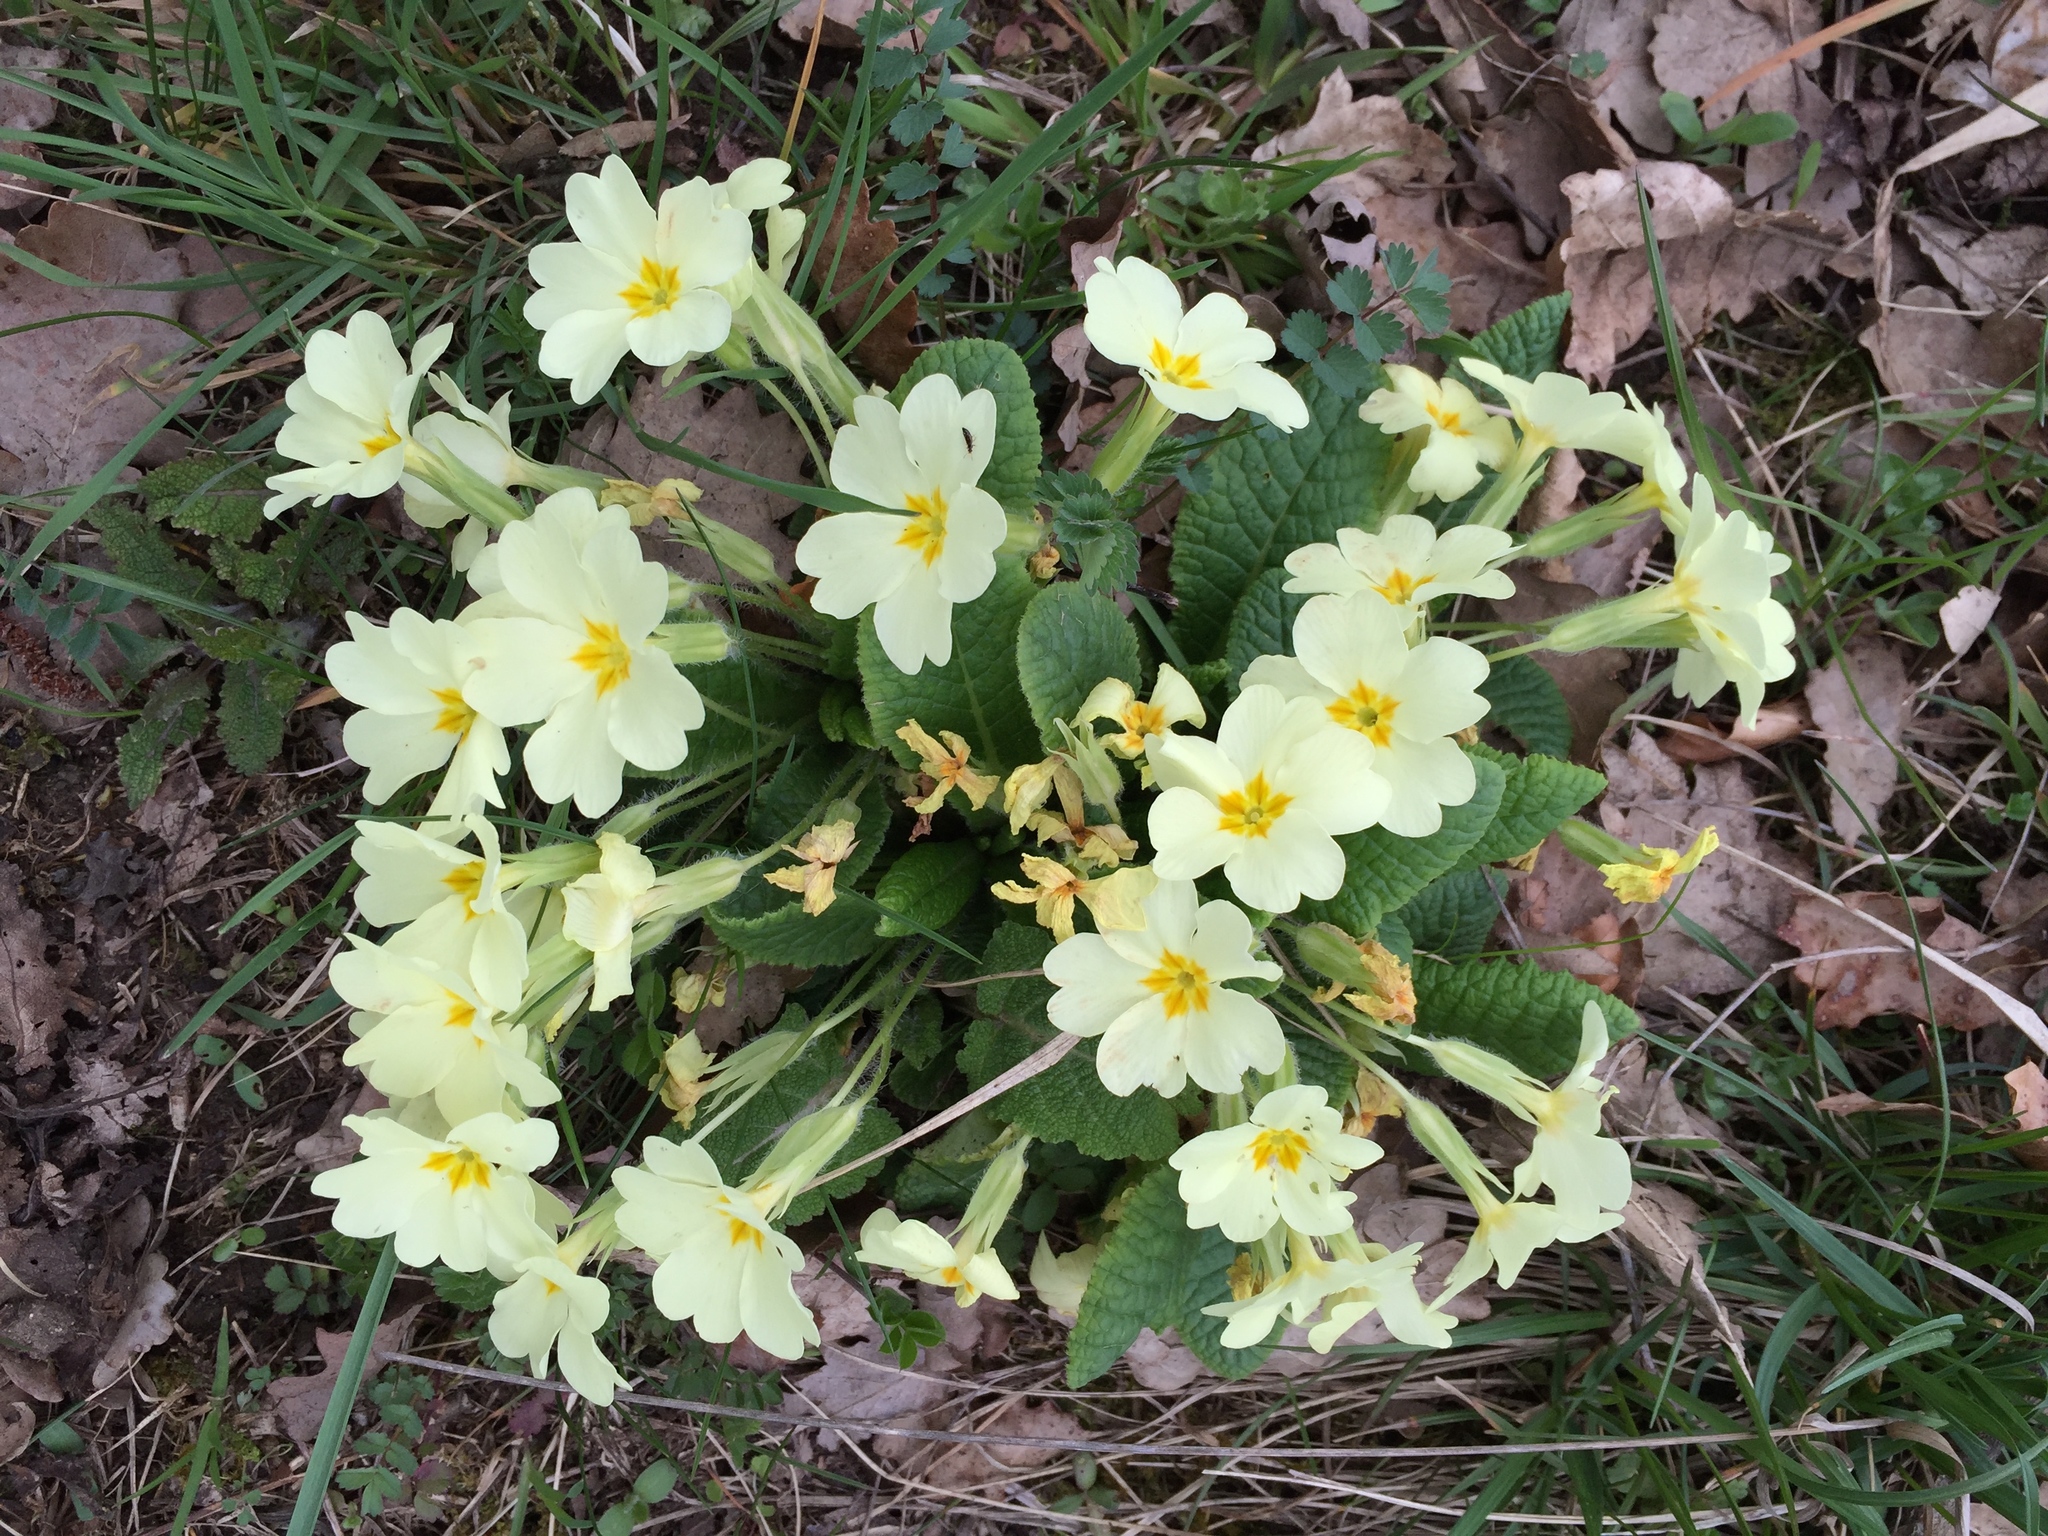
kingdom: Plantae
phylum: Tracheophyta
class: Magnoliopsida
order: Ericales
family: Primulaceae
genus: Primula
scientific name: Primula vulgaris
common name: Primrose
